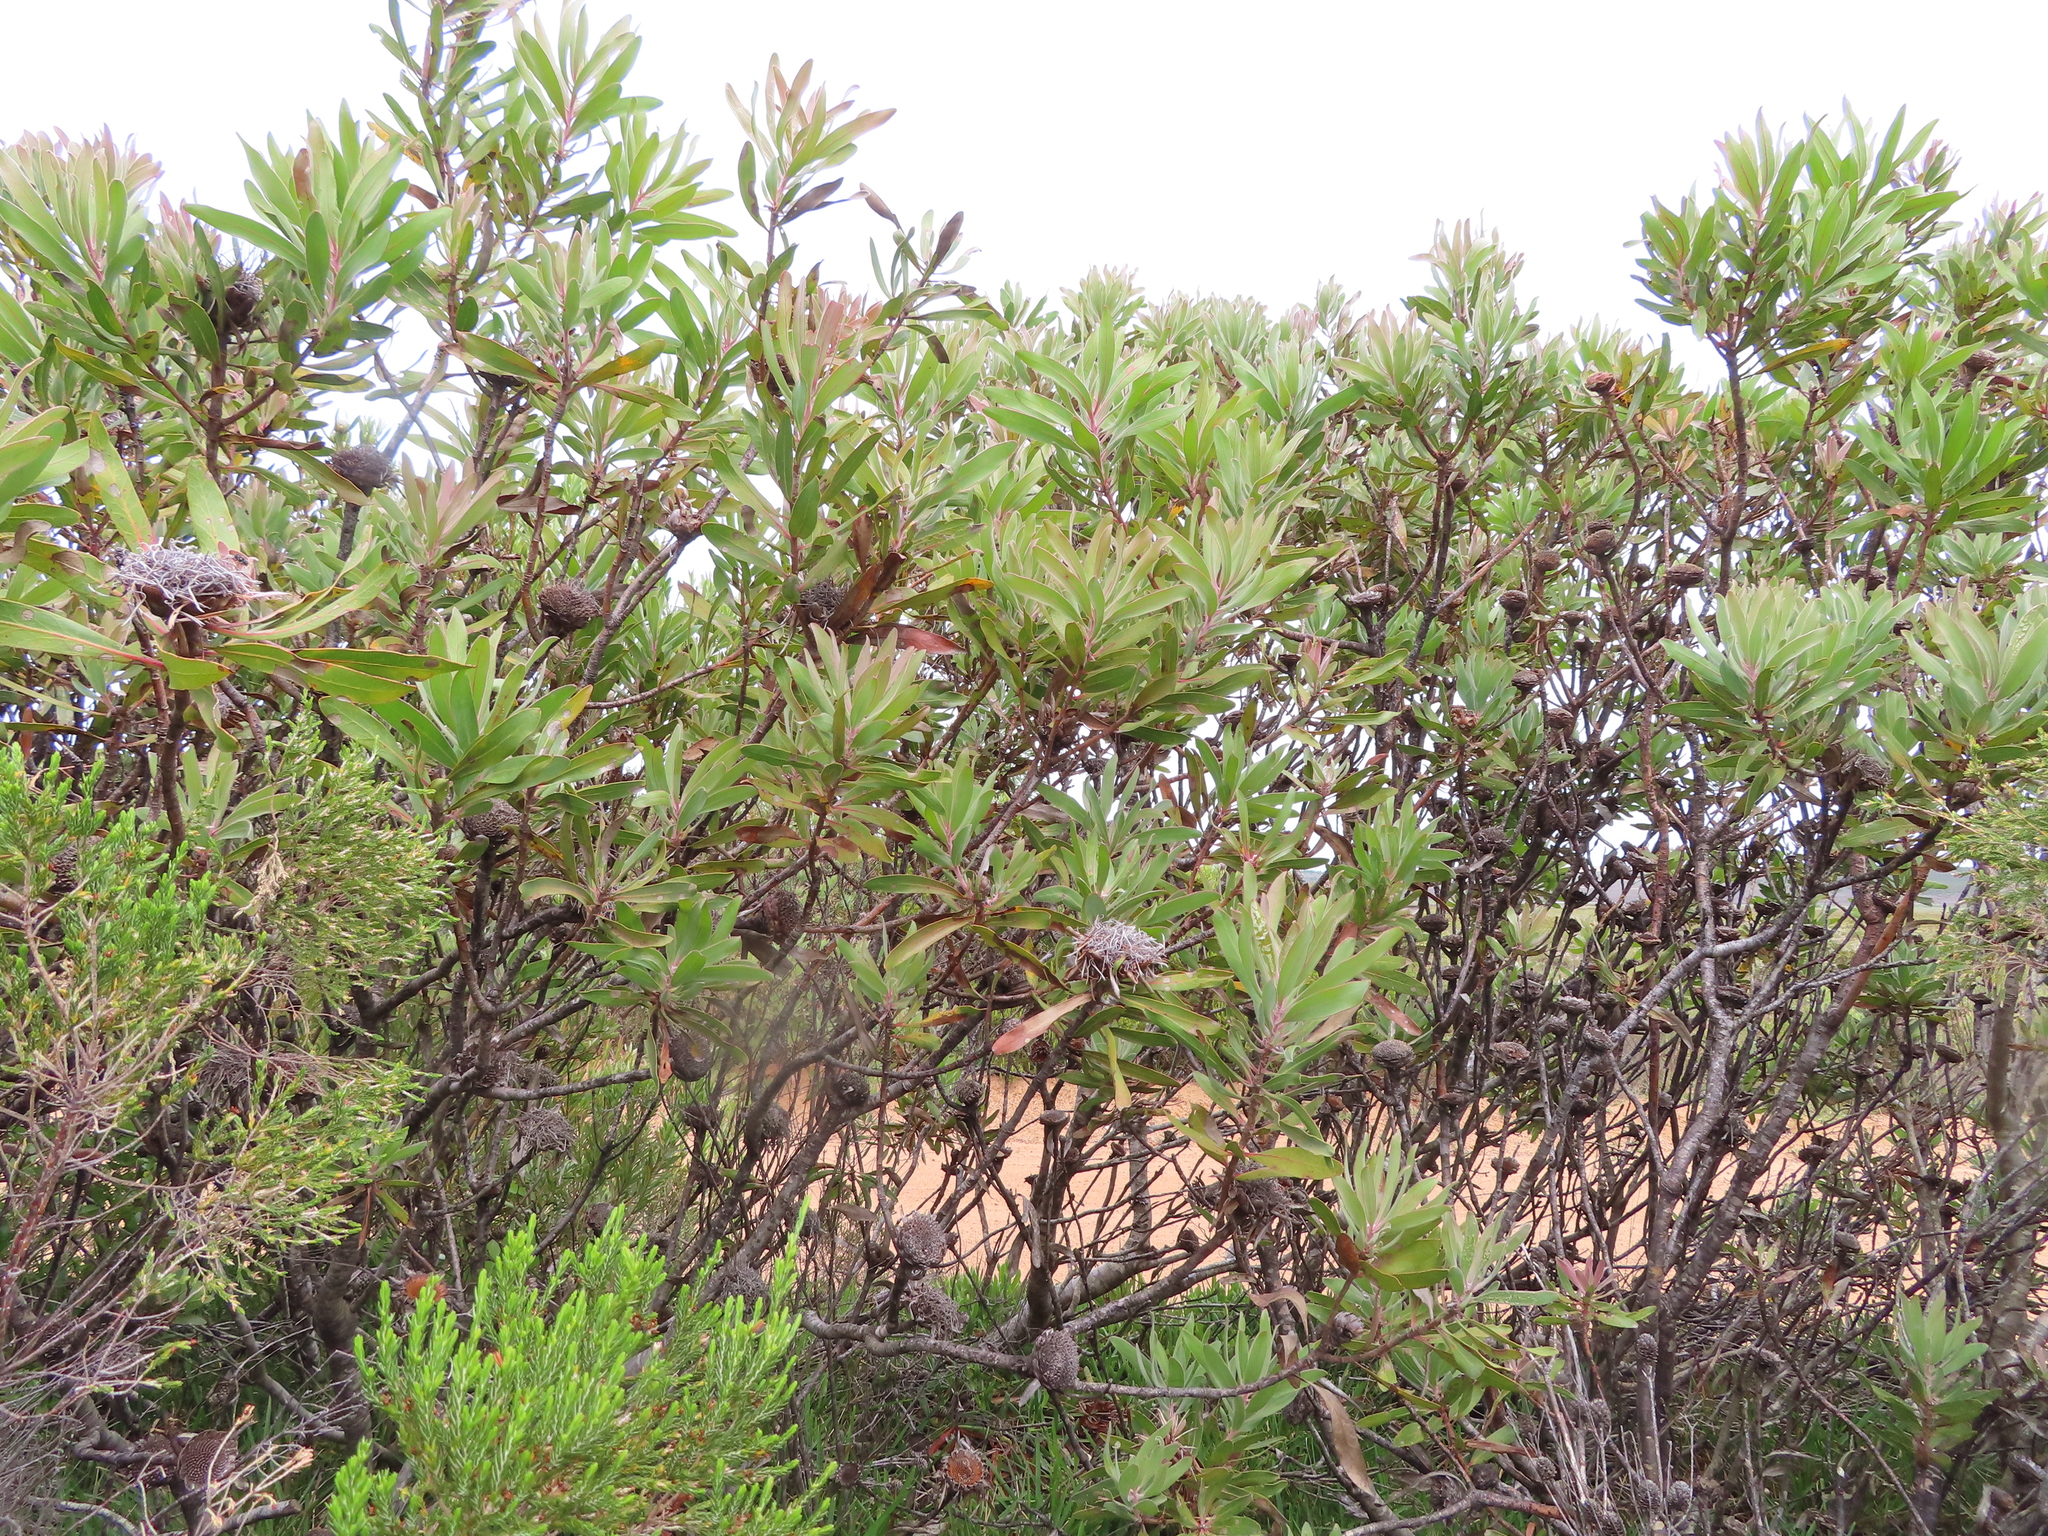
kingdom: Plantae
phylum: Tracheophyta
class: Magnoliopsida
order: Proteales
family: Proteaceae
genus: Protea
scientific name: Protea susannae
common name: Foetid-leaf sugarbush
